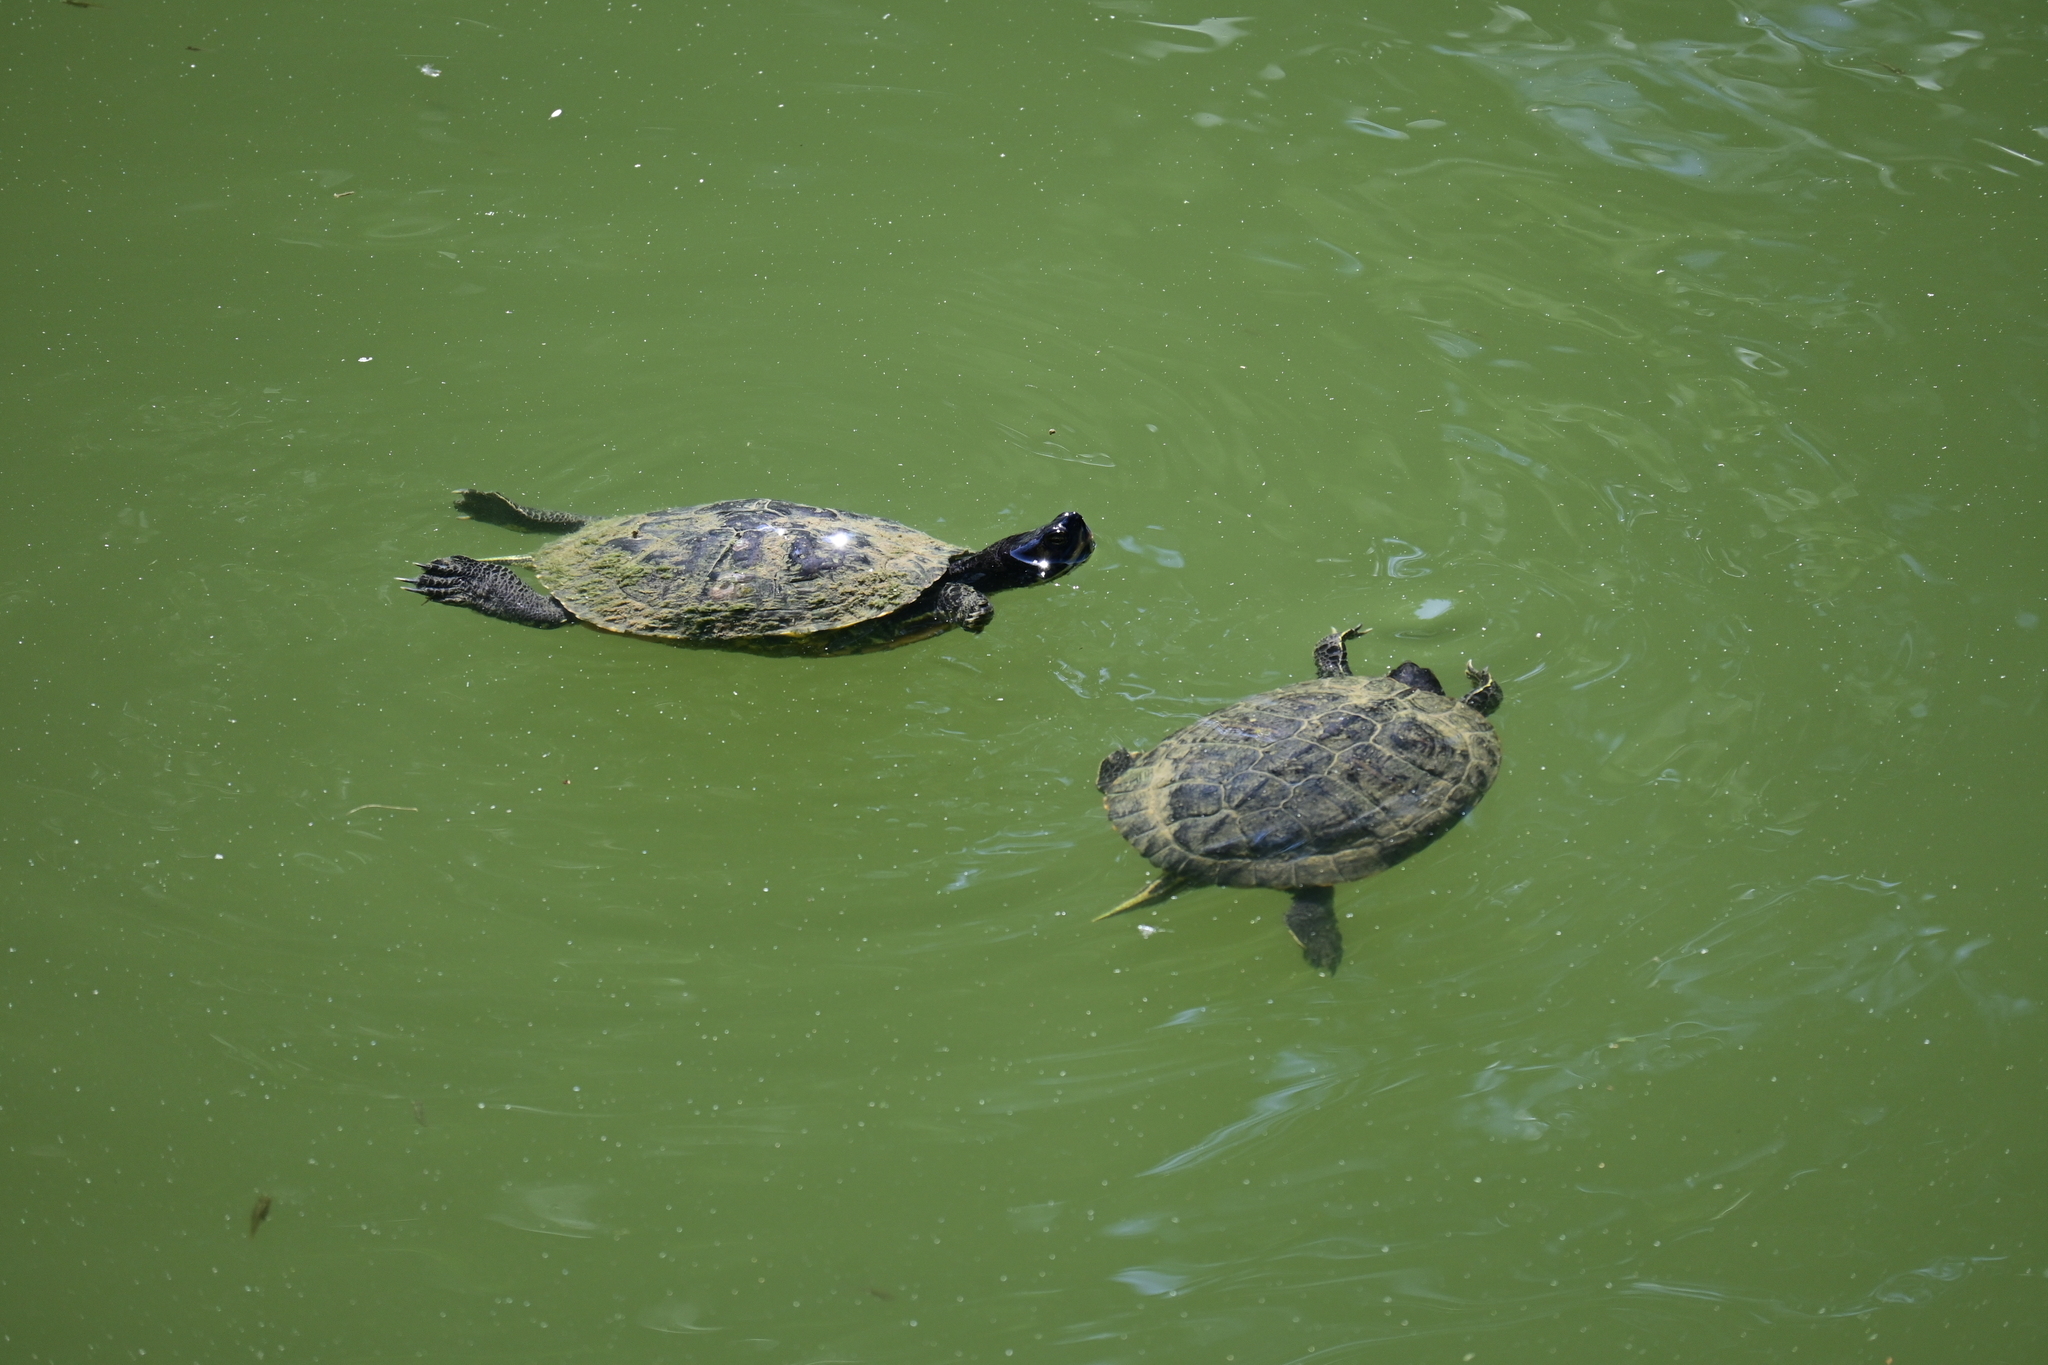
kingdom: Animalia
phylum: Chordata
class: Testudines
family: Emydidae
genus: Trachemys
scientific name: Trachemys scripta
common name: Slider
